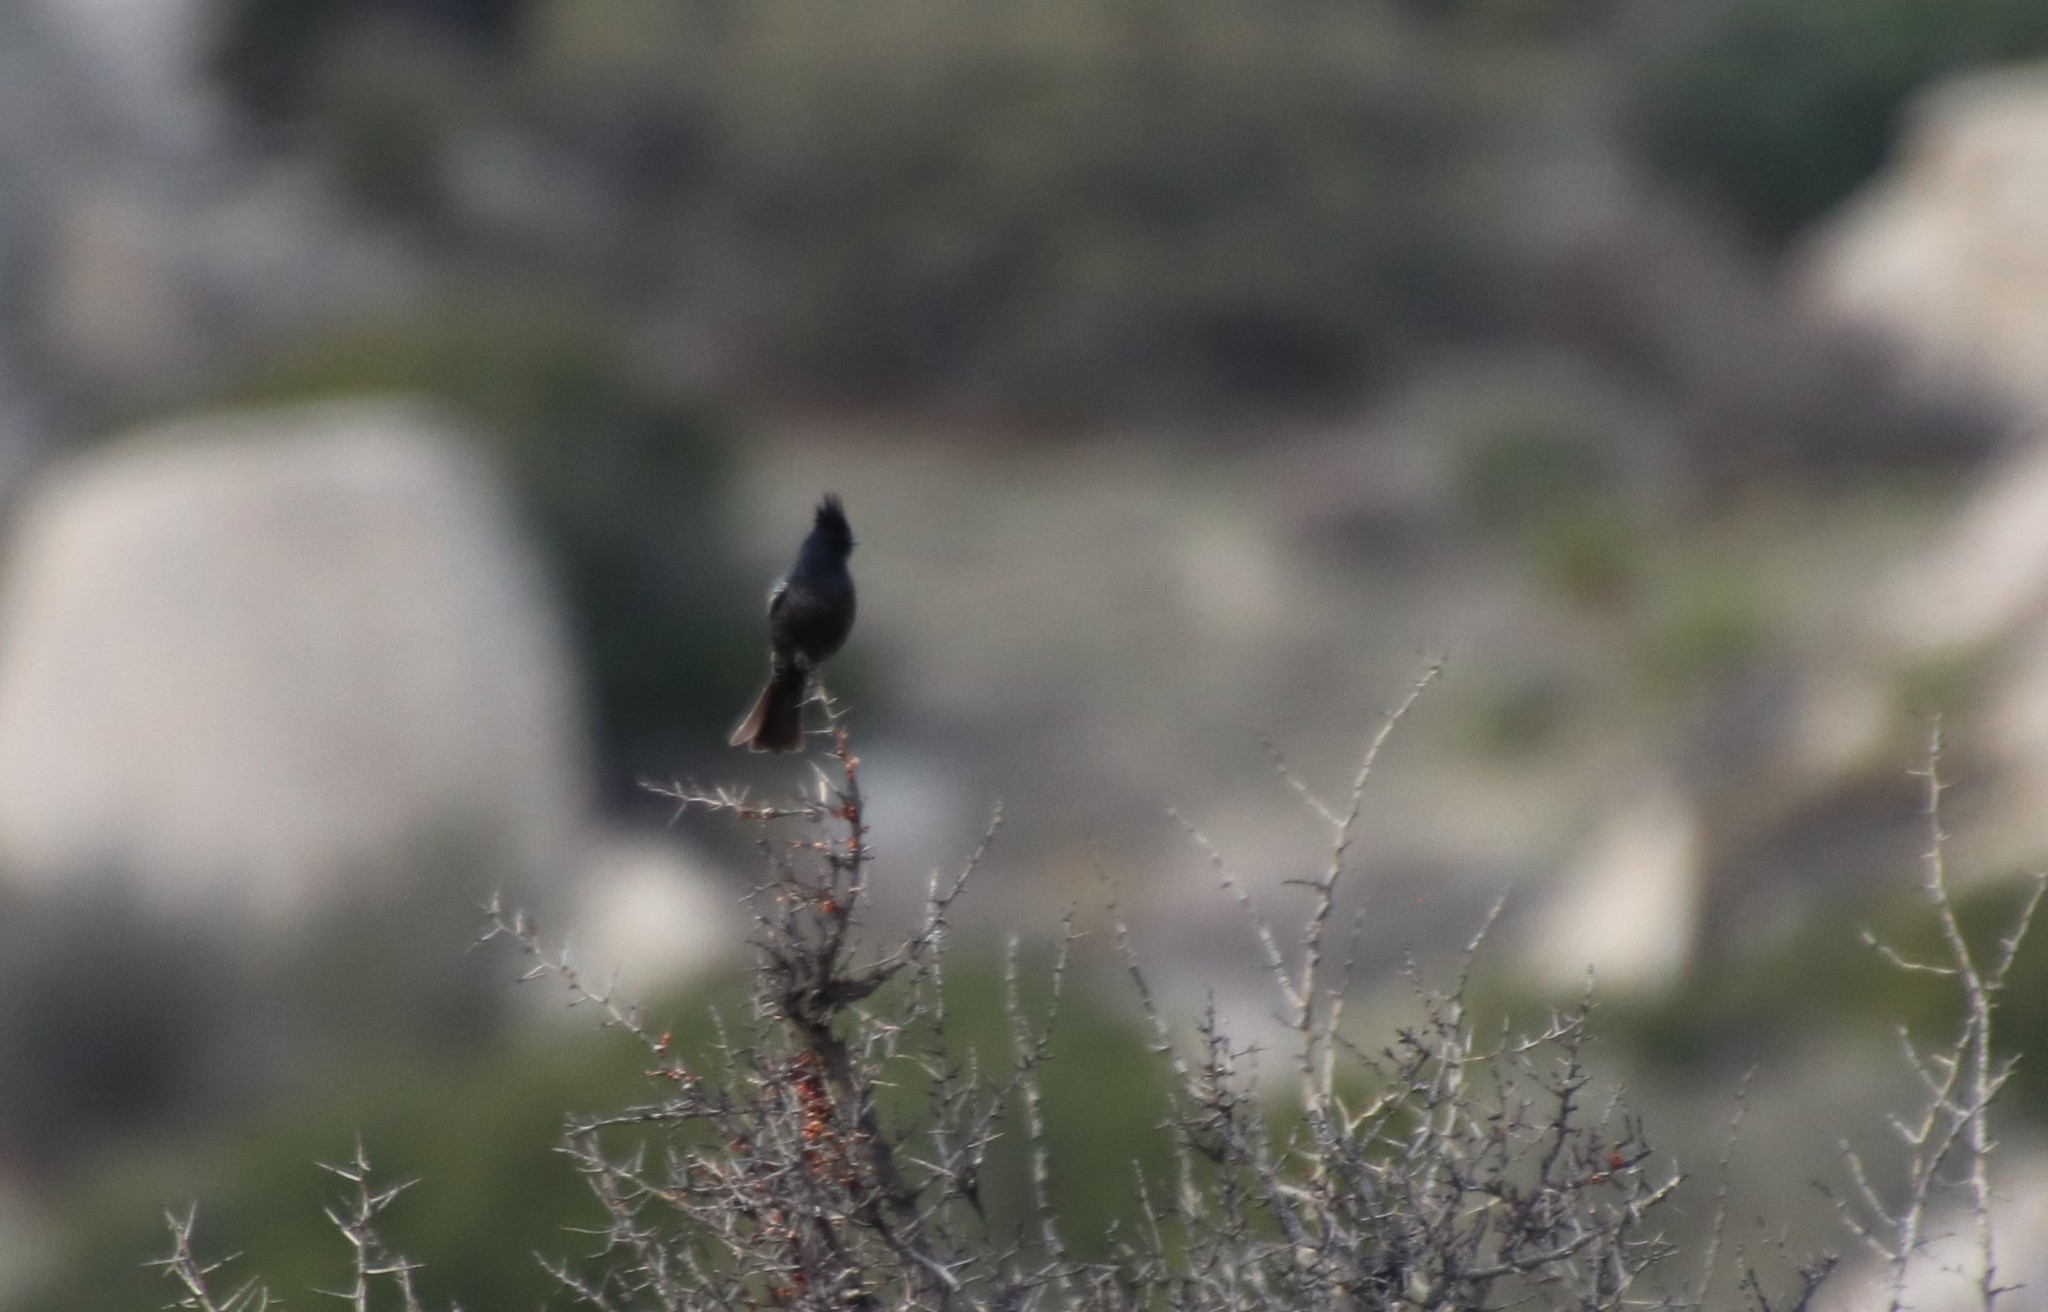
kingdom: Animalia
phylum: Chordata
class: Aves
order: Passeriformes
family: Ptilogonatidae
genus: Phainopepla
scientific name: Phainopepla nitens
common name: Phainopepla
